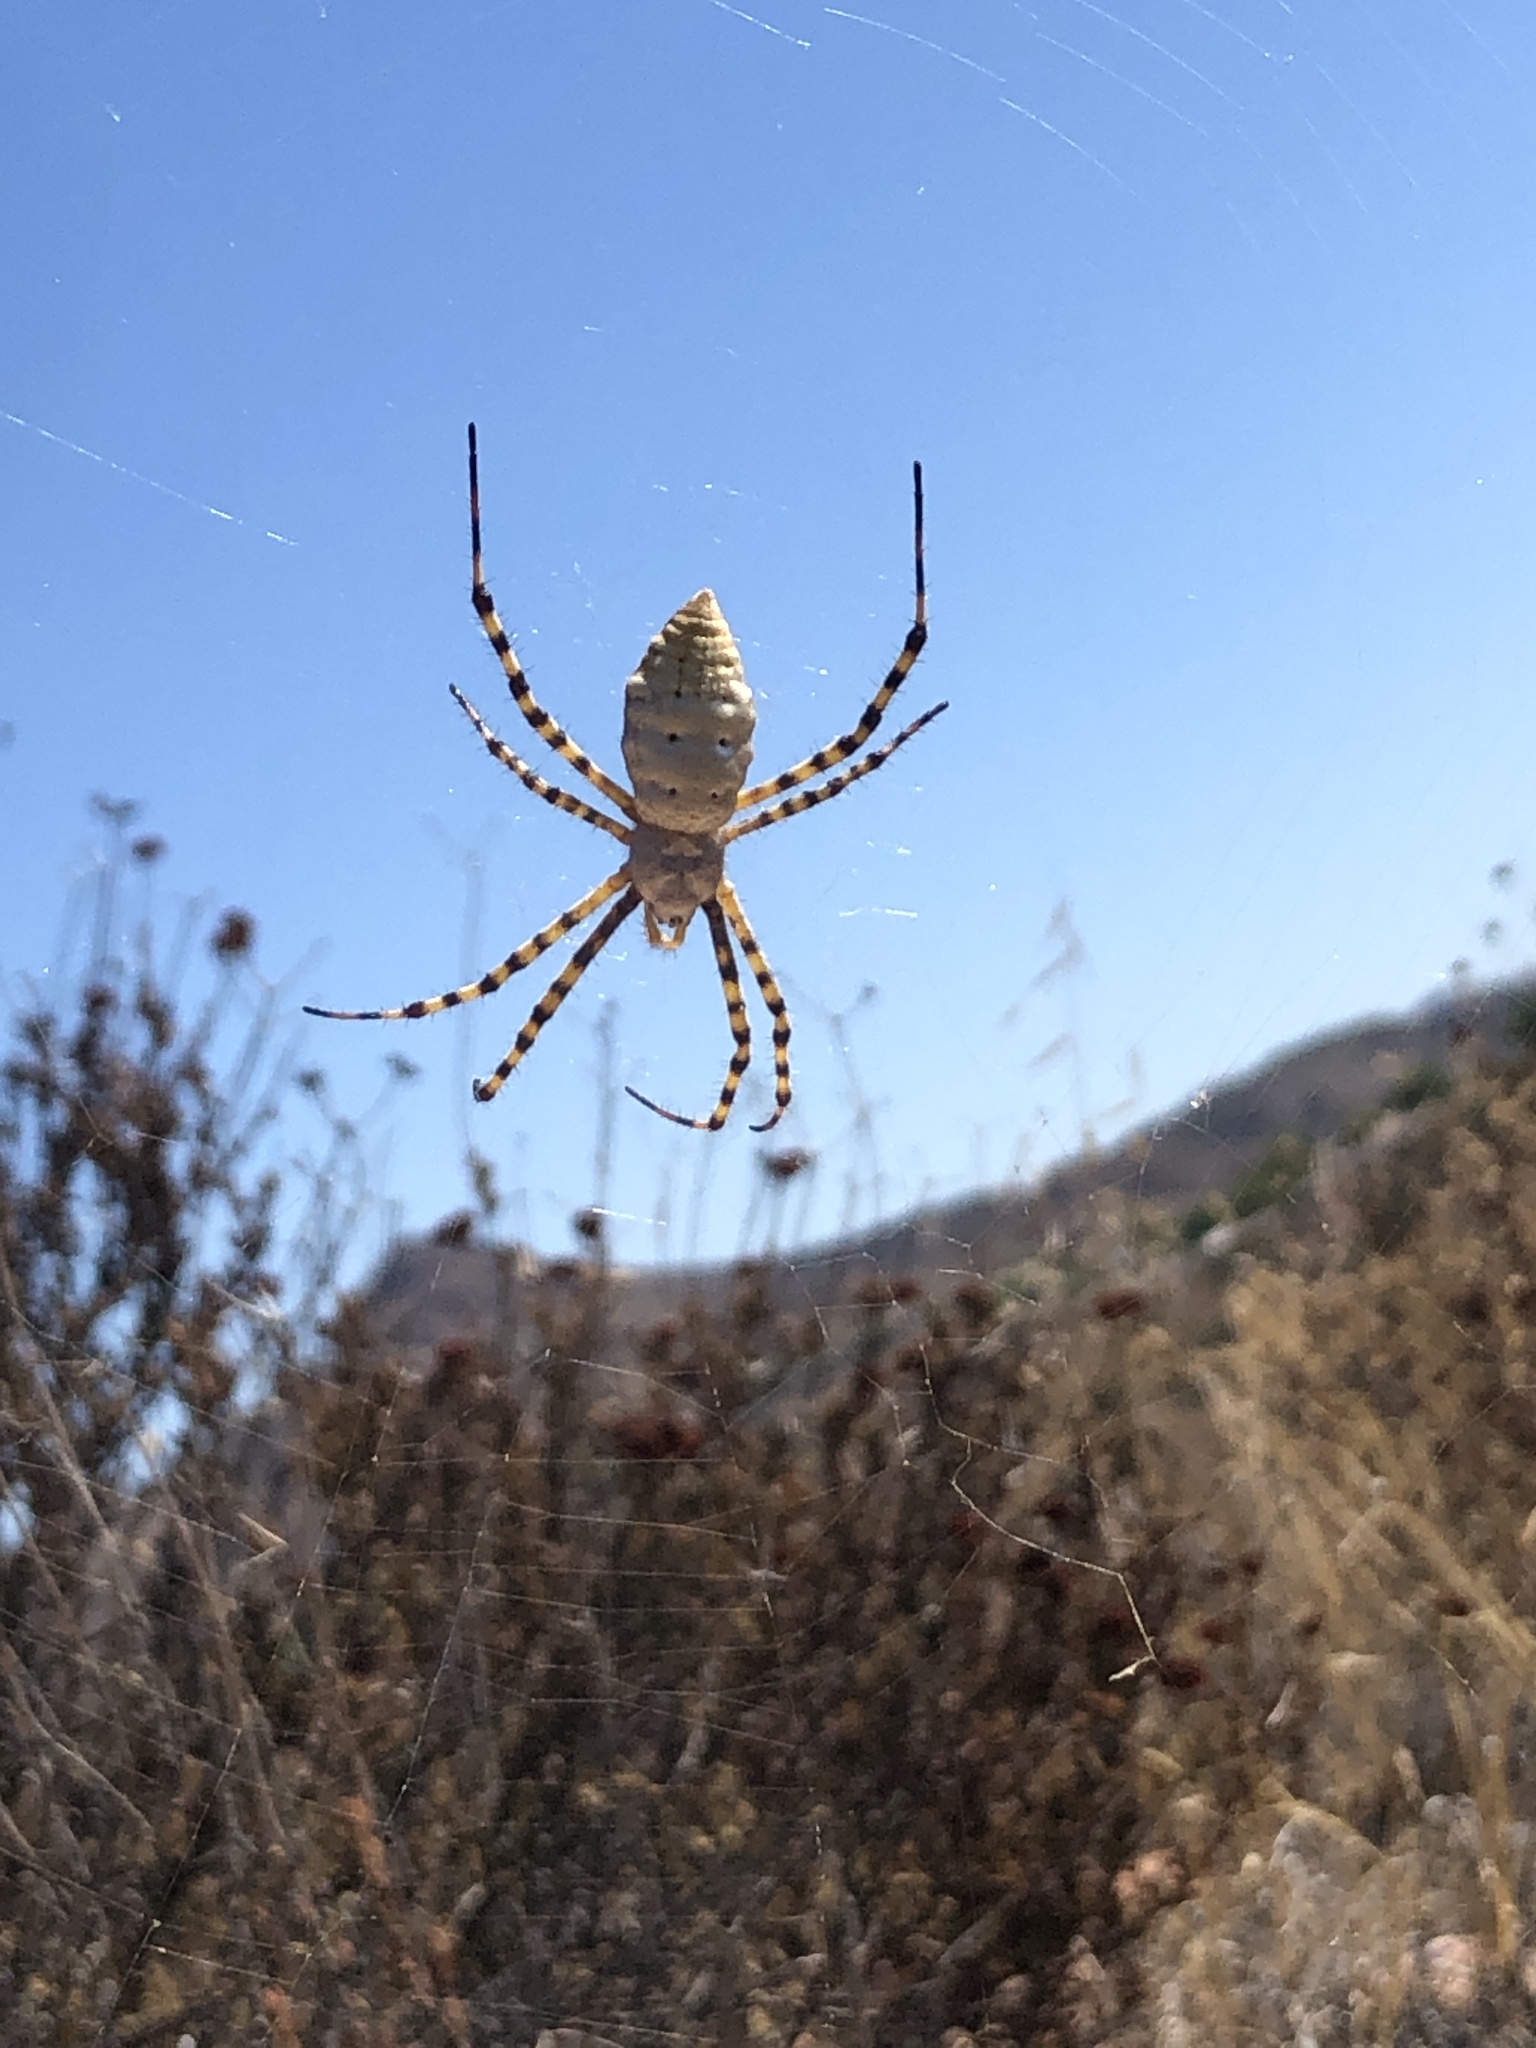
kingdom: Animalia
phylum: Arthropoda
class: Arachnida
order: Araneae
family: Araneidae
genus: Argiope
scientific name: Argiope trifasciata
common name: Banded garden spider
